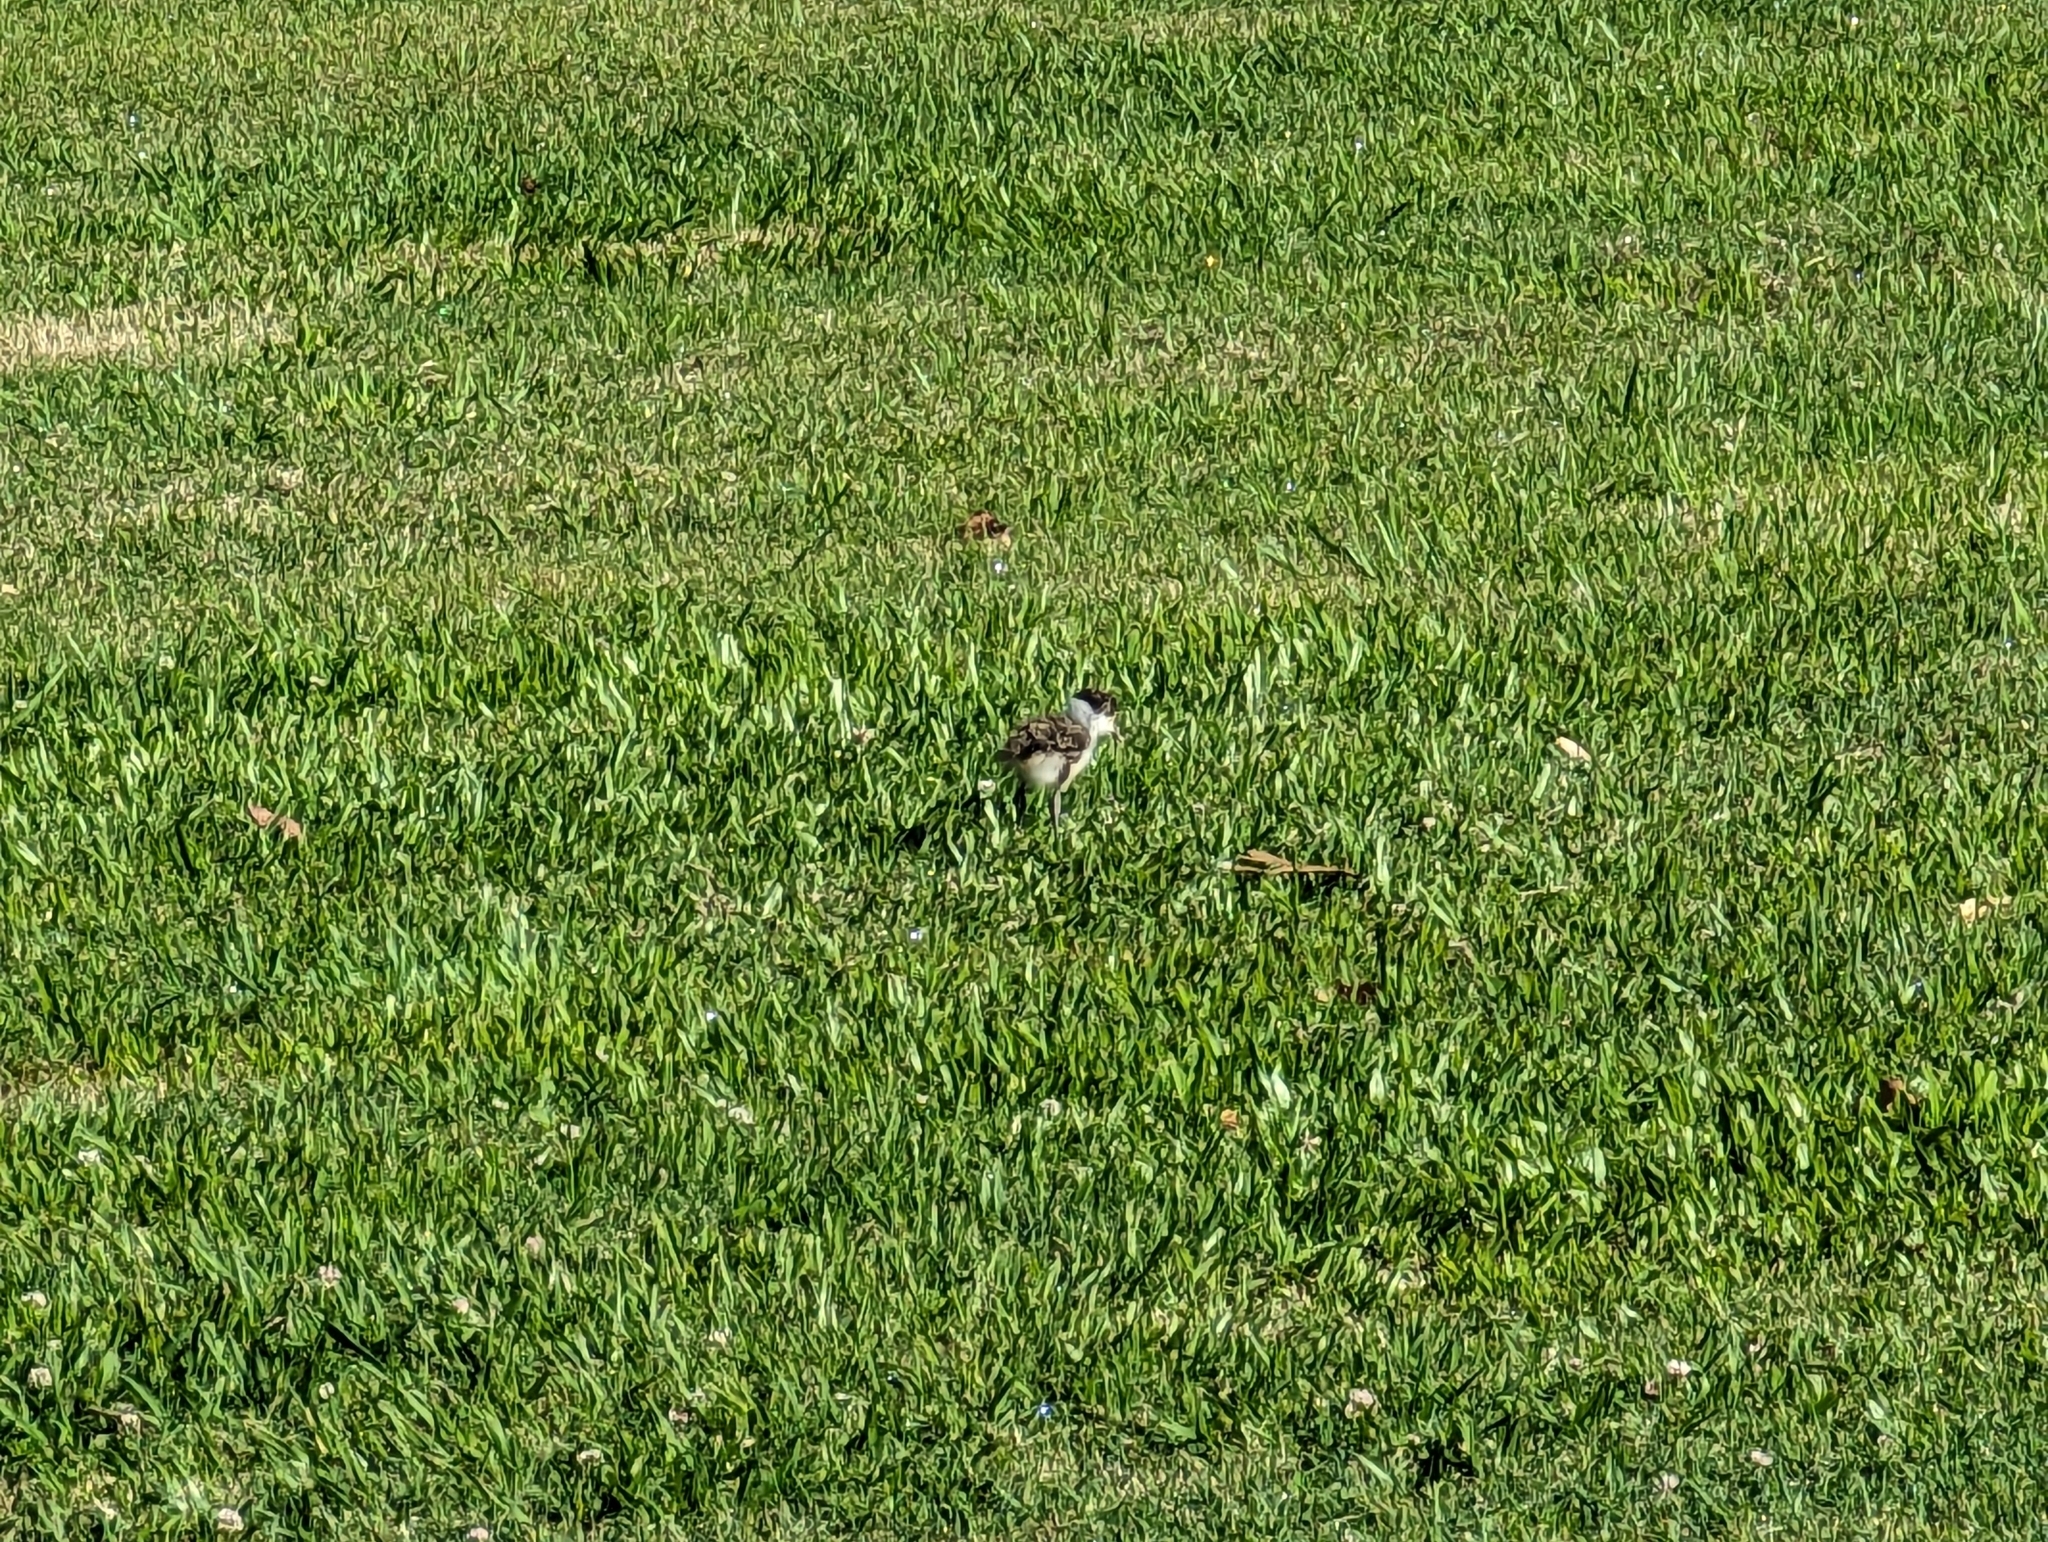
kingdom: Animalia
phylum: Chordata
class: Aves
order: Charadriiformes
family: Charadriidae
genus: Vanellus
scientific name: Vanellus miles
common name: Masked lapwing
